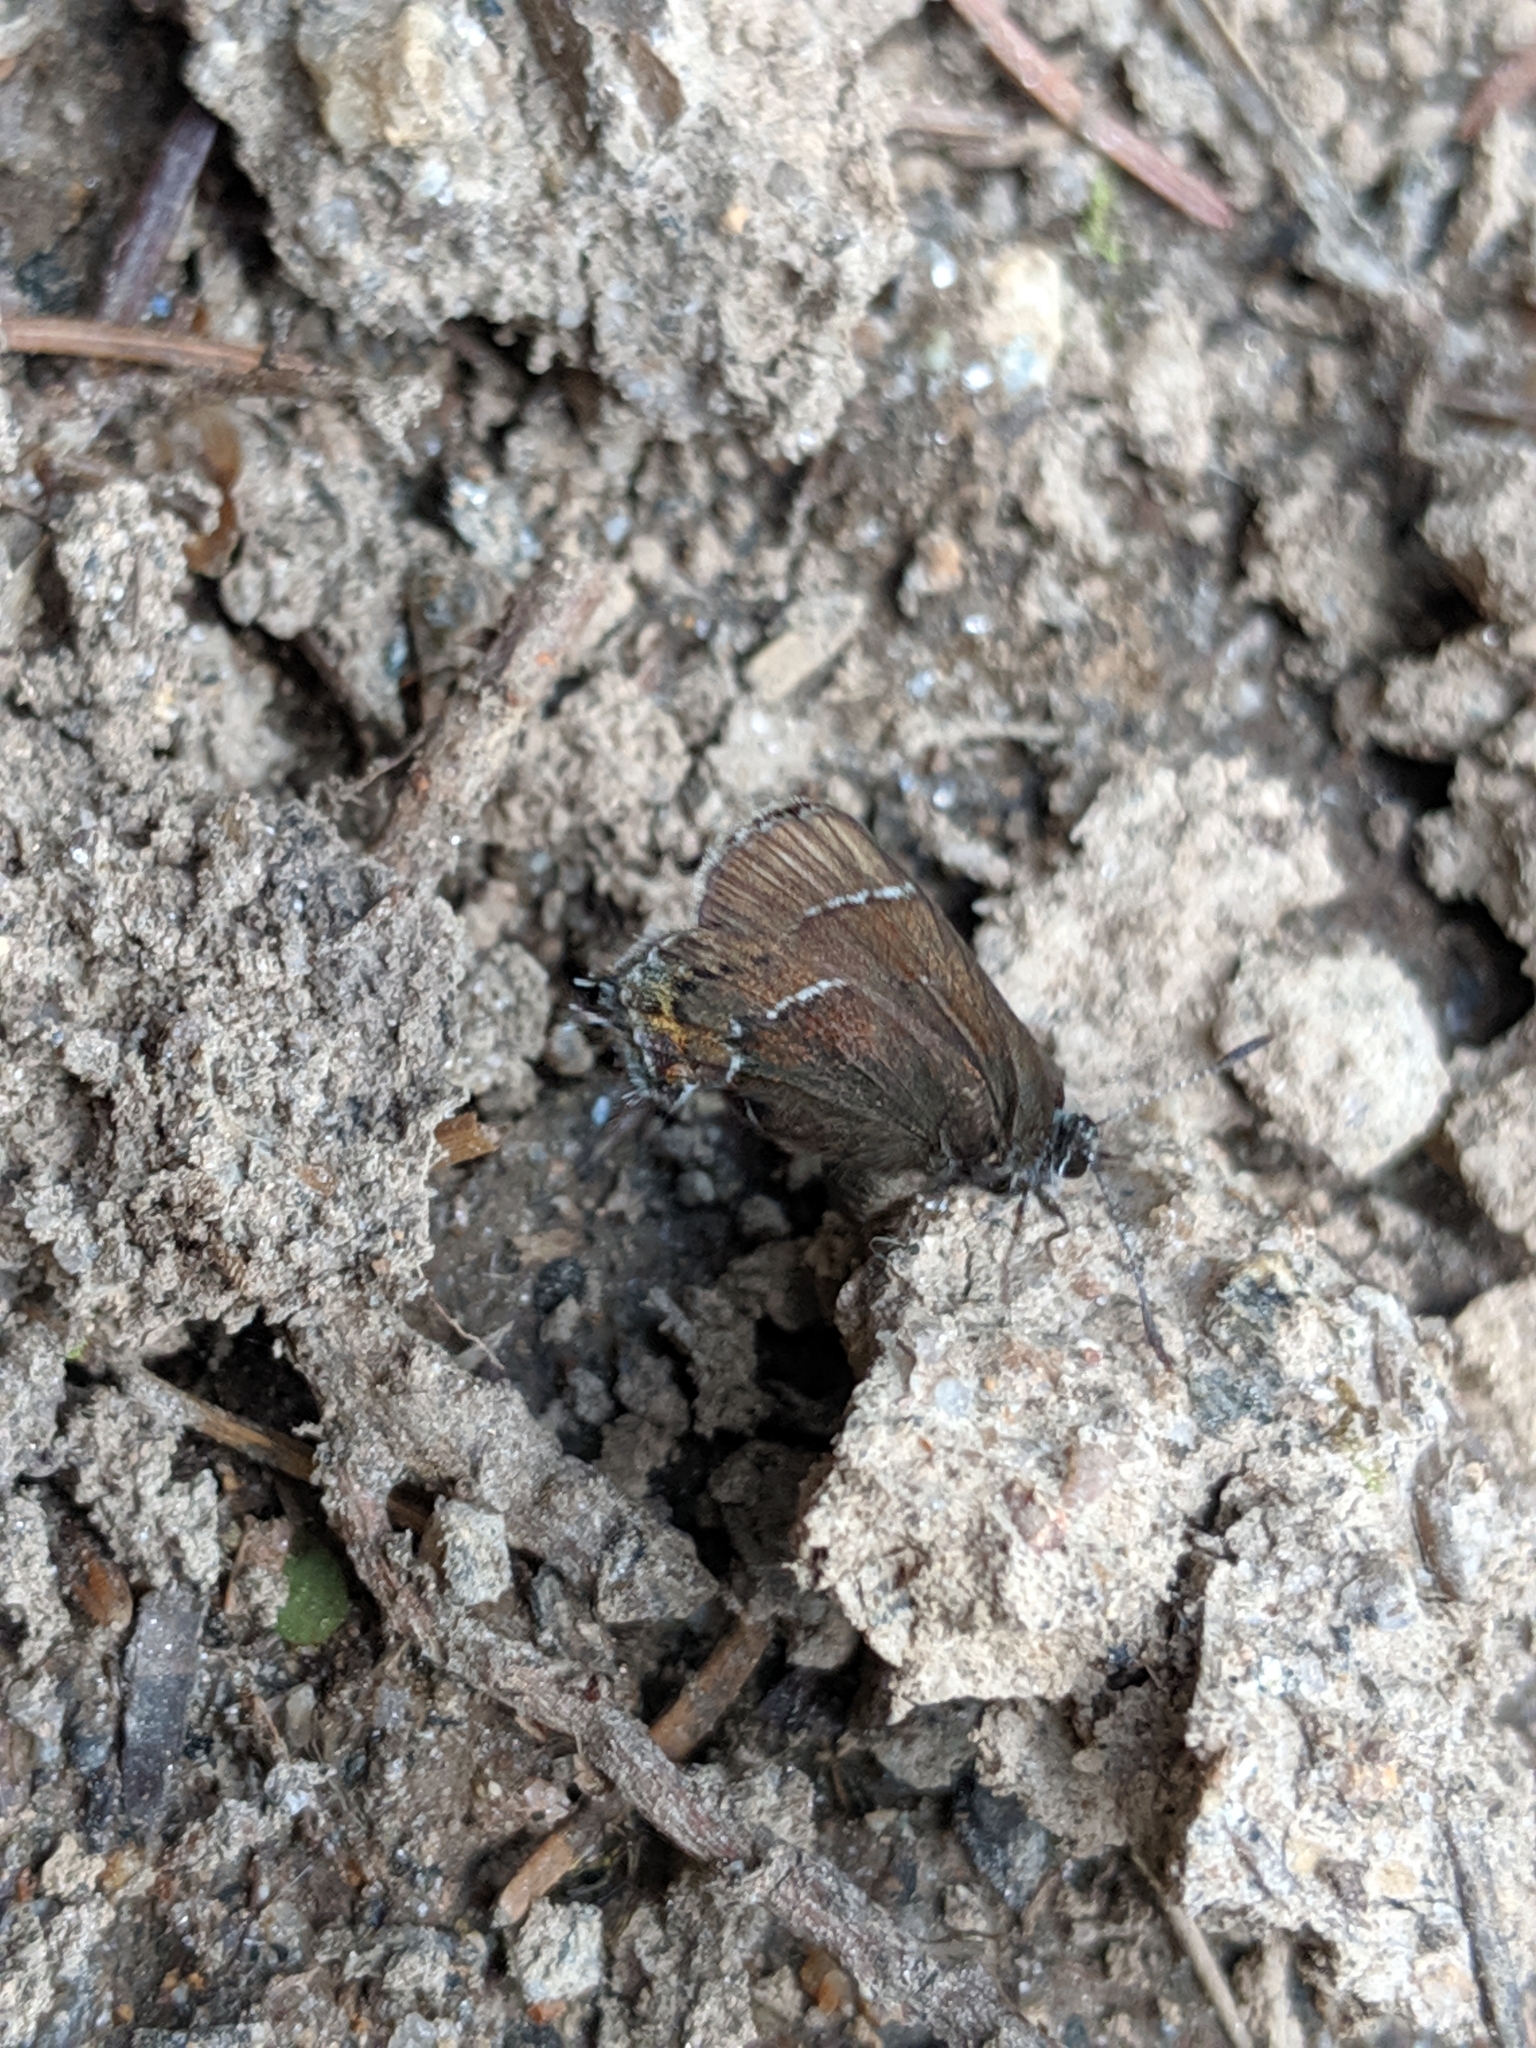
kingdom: Animalia
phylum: Arthropoda
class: Insecta
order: Lepidoptera
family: Lycaenidae
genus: Mitoura
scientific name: Mitoura spinetorum
